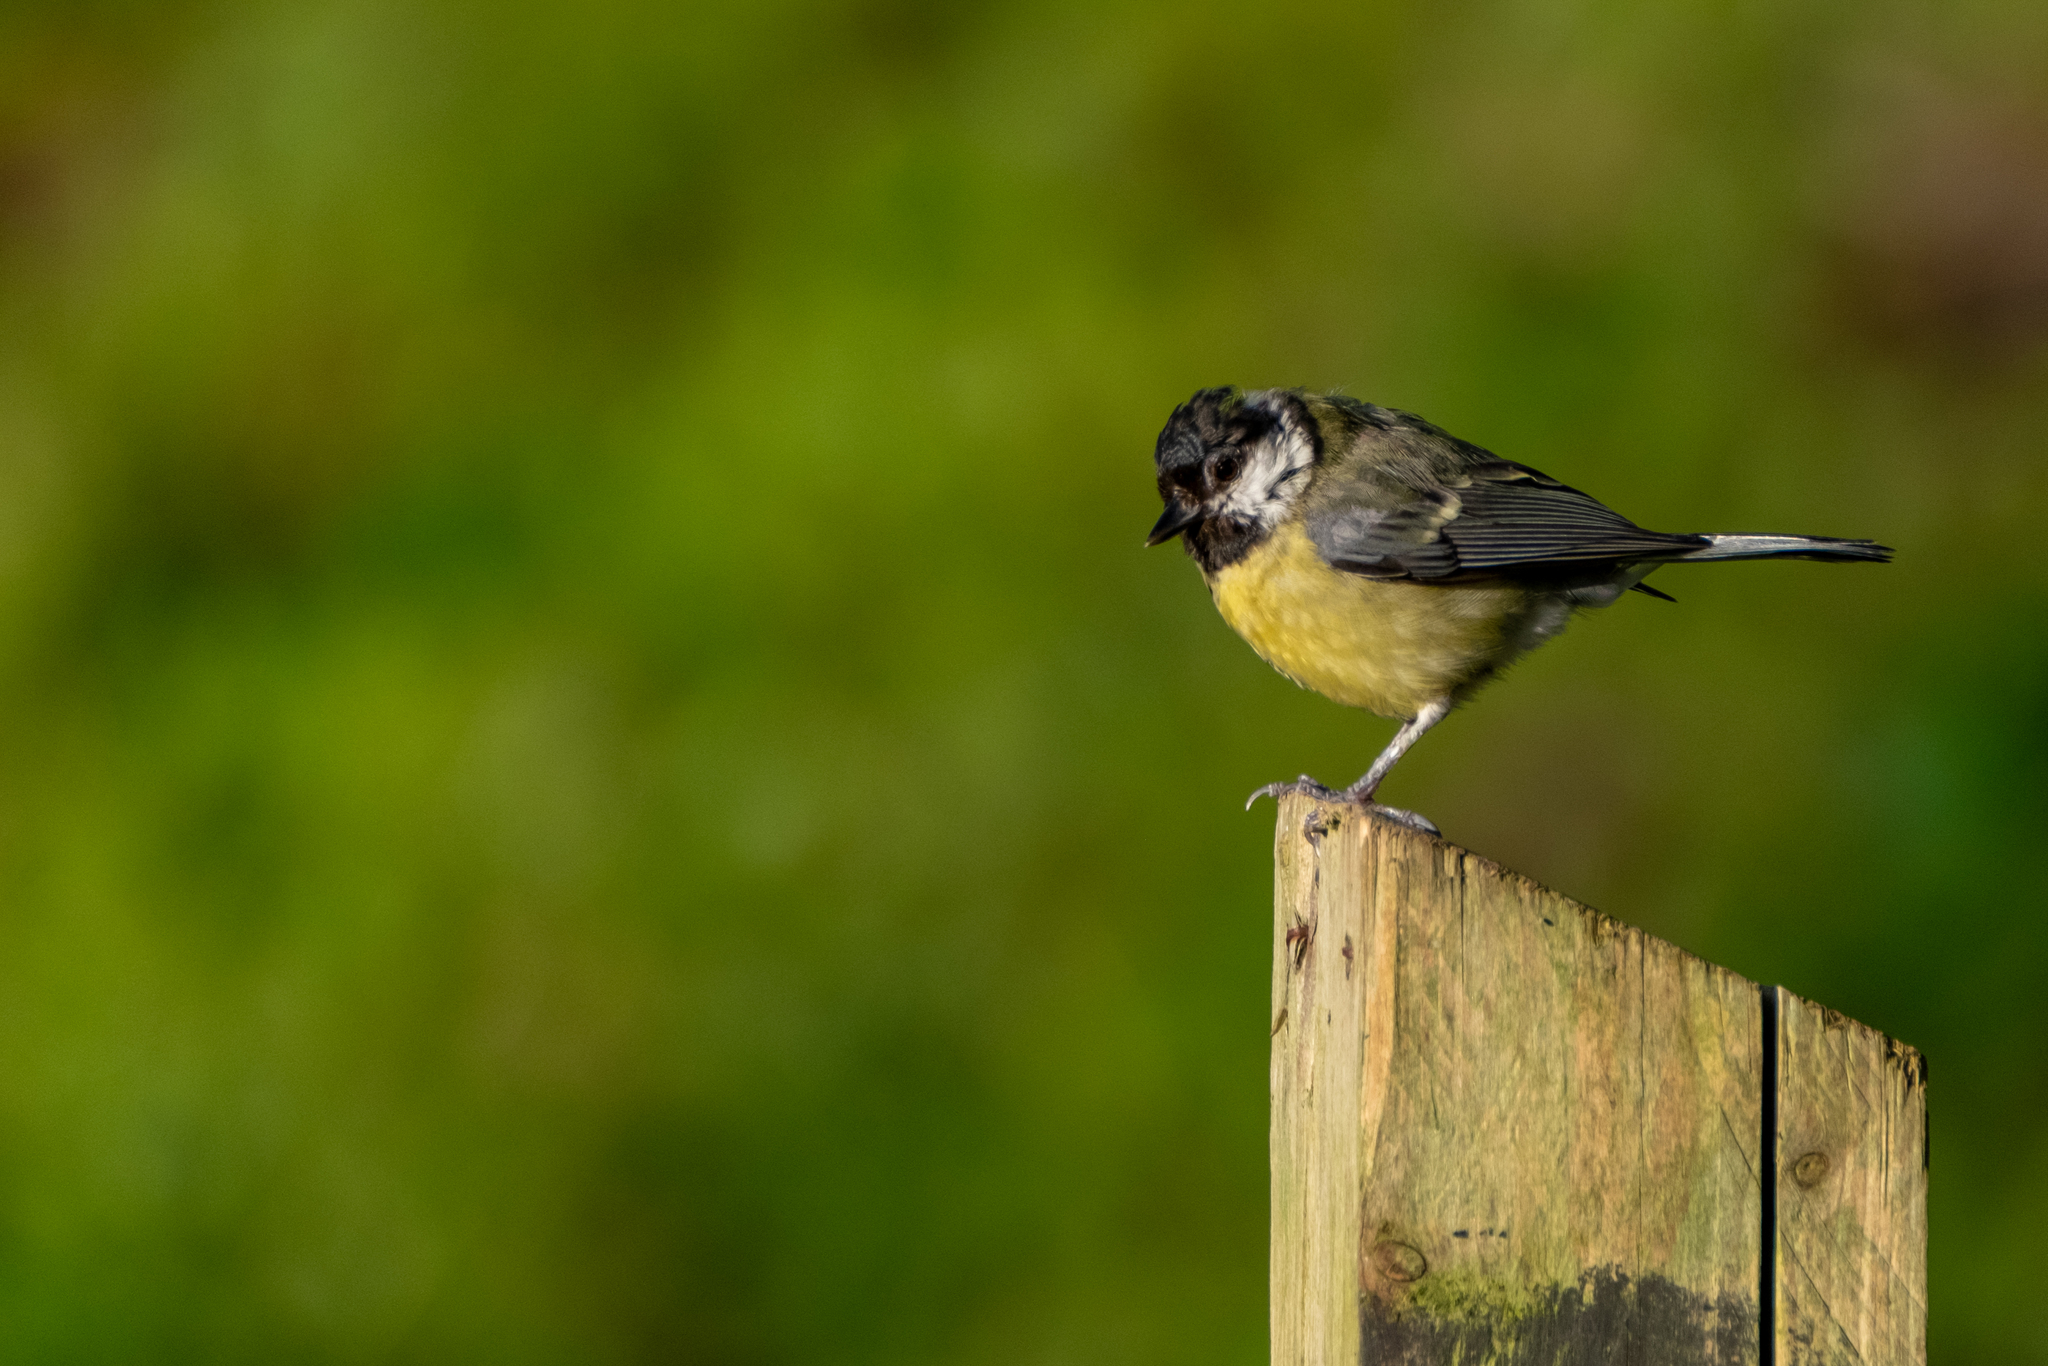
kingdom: Animalia
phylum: Chordata
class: Aves
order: Passeriformes
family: Paridae
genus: Parus
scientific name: Parus major
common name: Great tit
